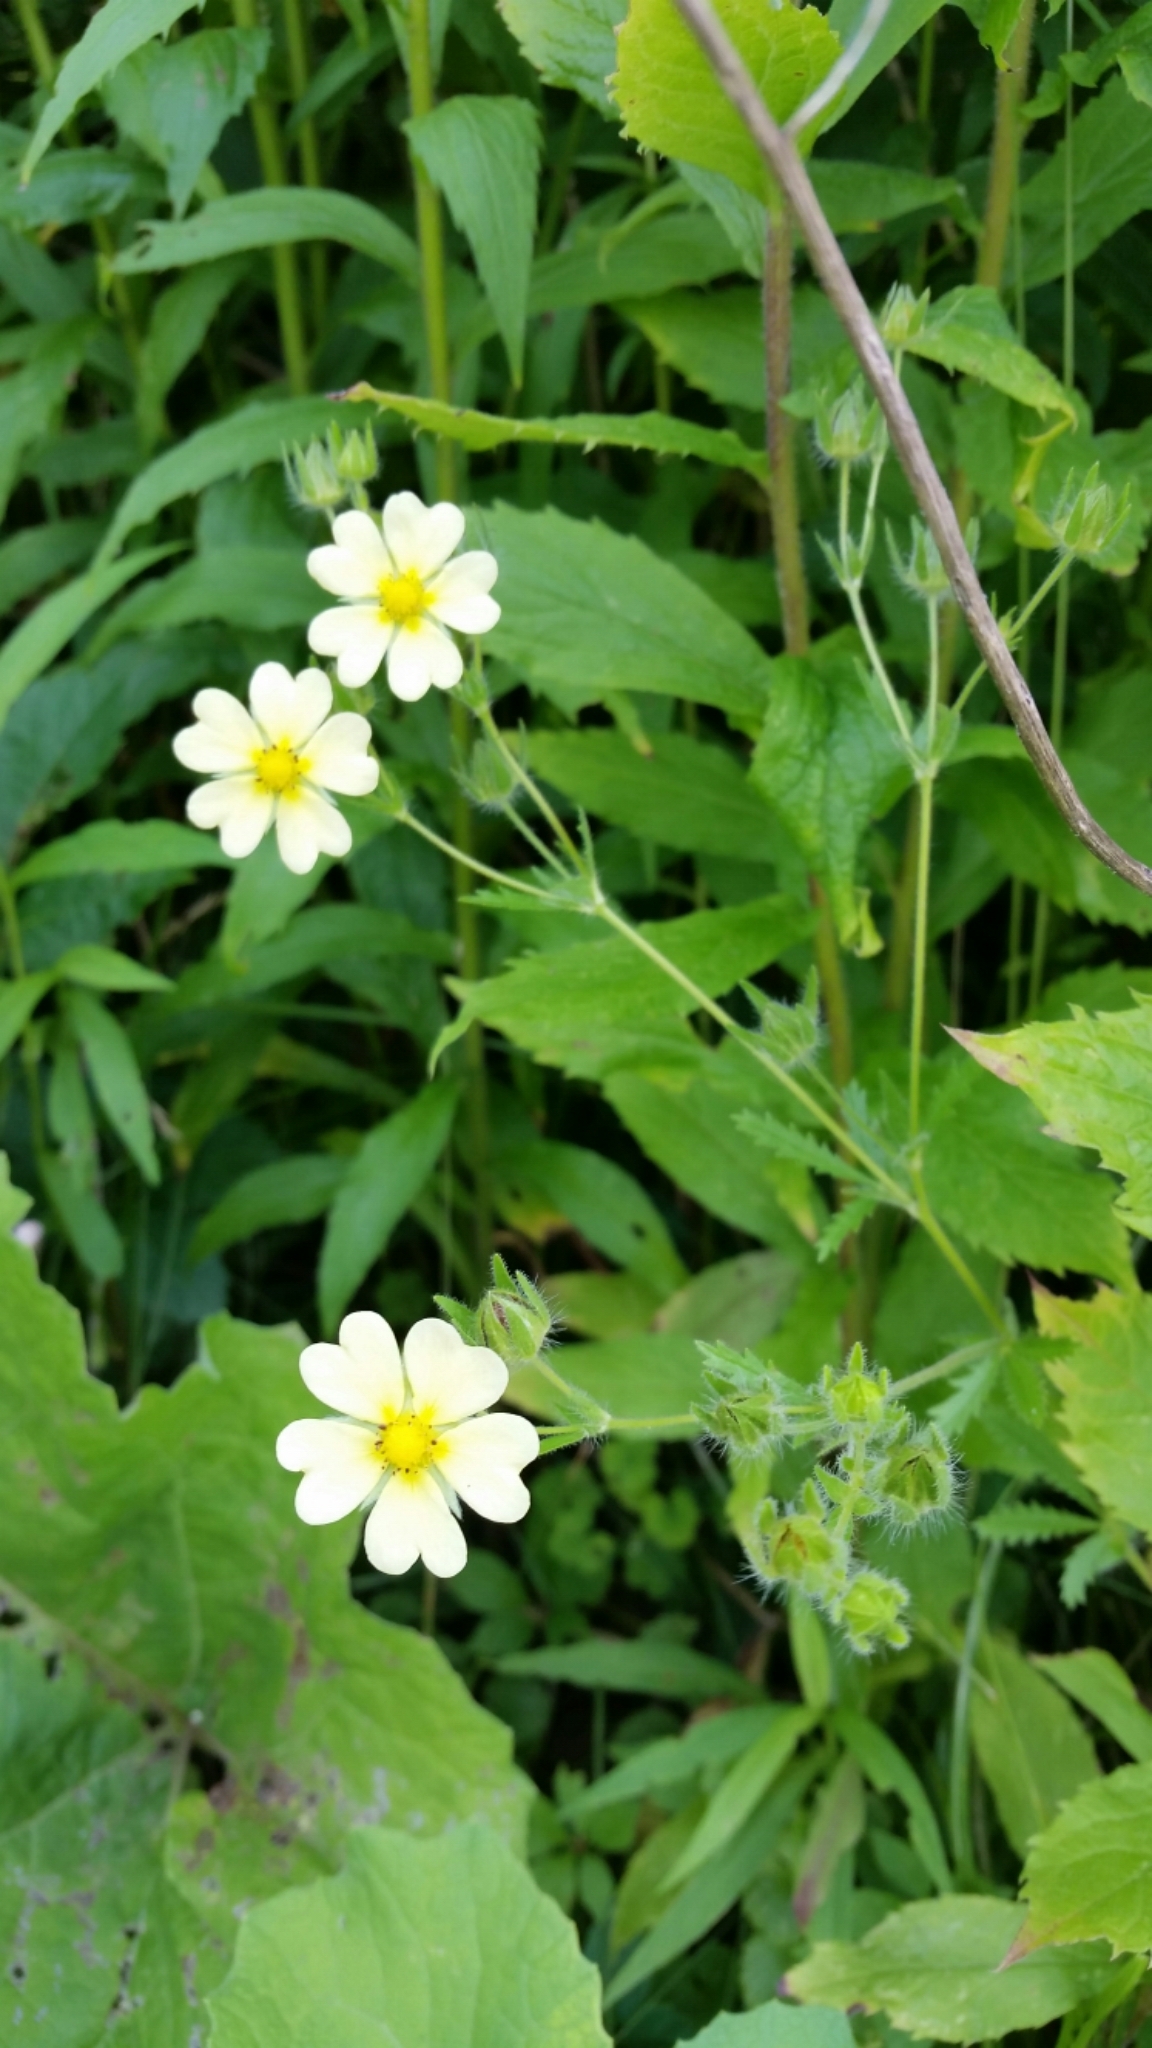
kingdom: Plantae
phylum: Tracheophyta
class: Magnoliopsida
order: Rosales
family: Rosaceae
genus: Potentilla
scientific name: Potentilla recta
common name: Sulphur cinquefoil
